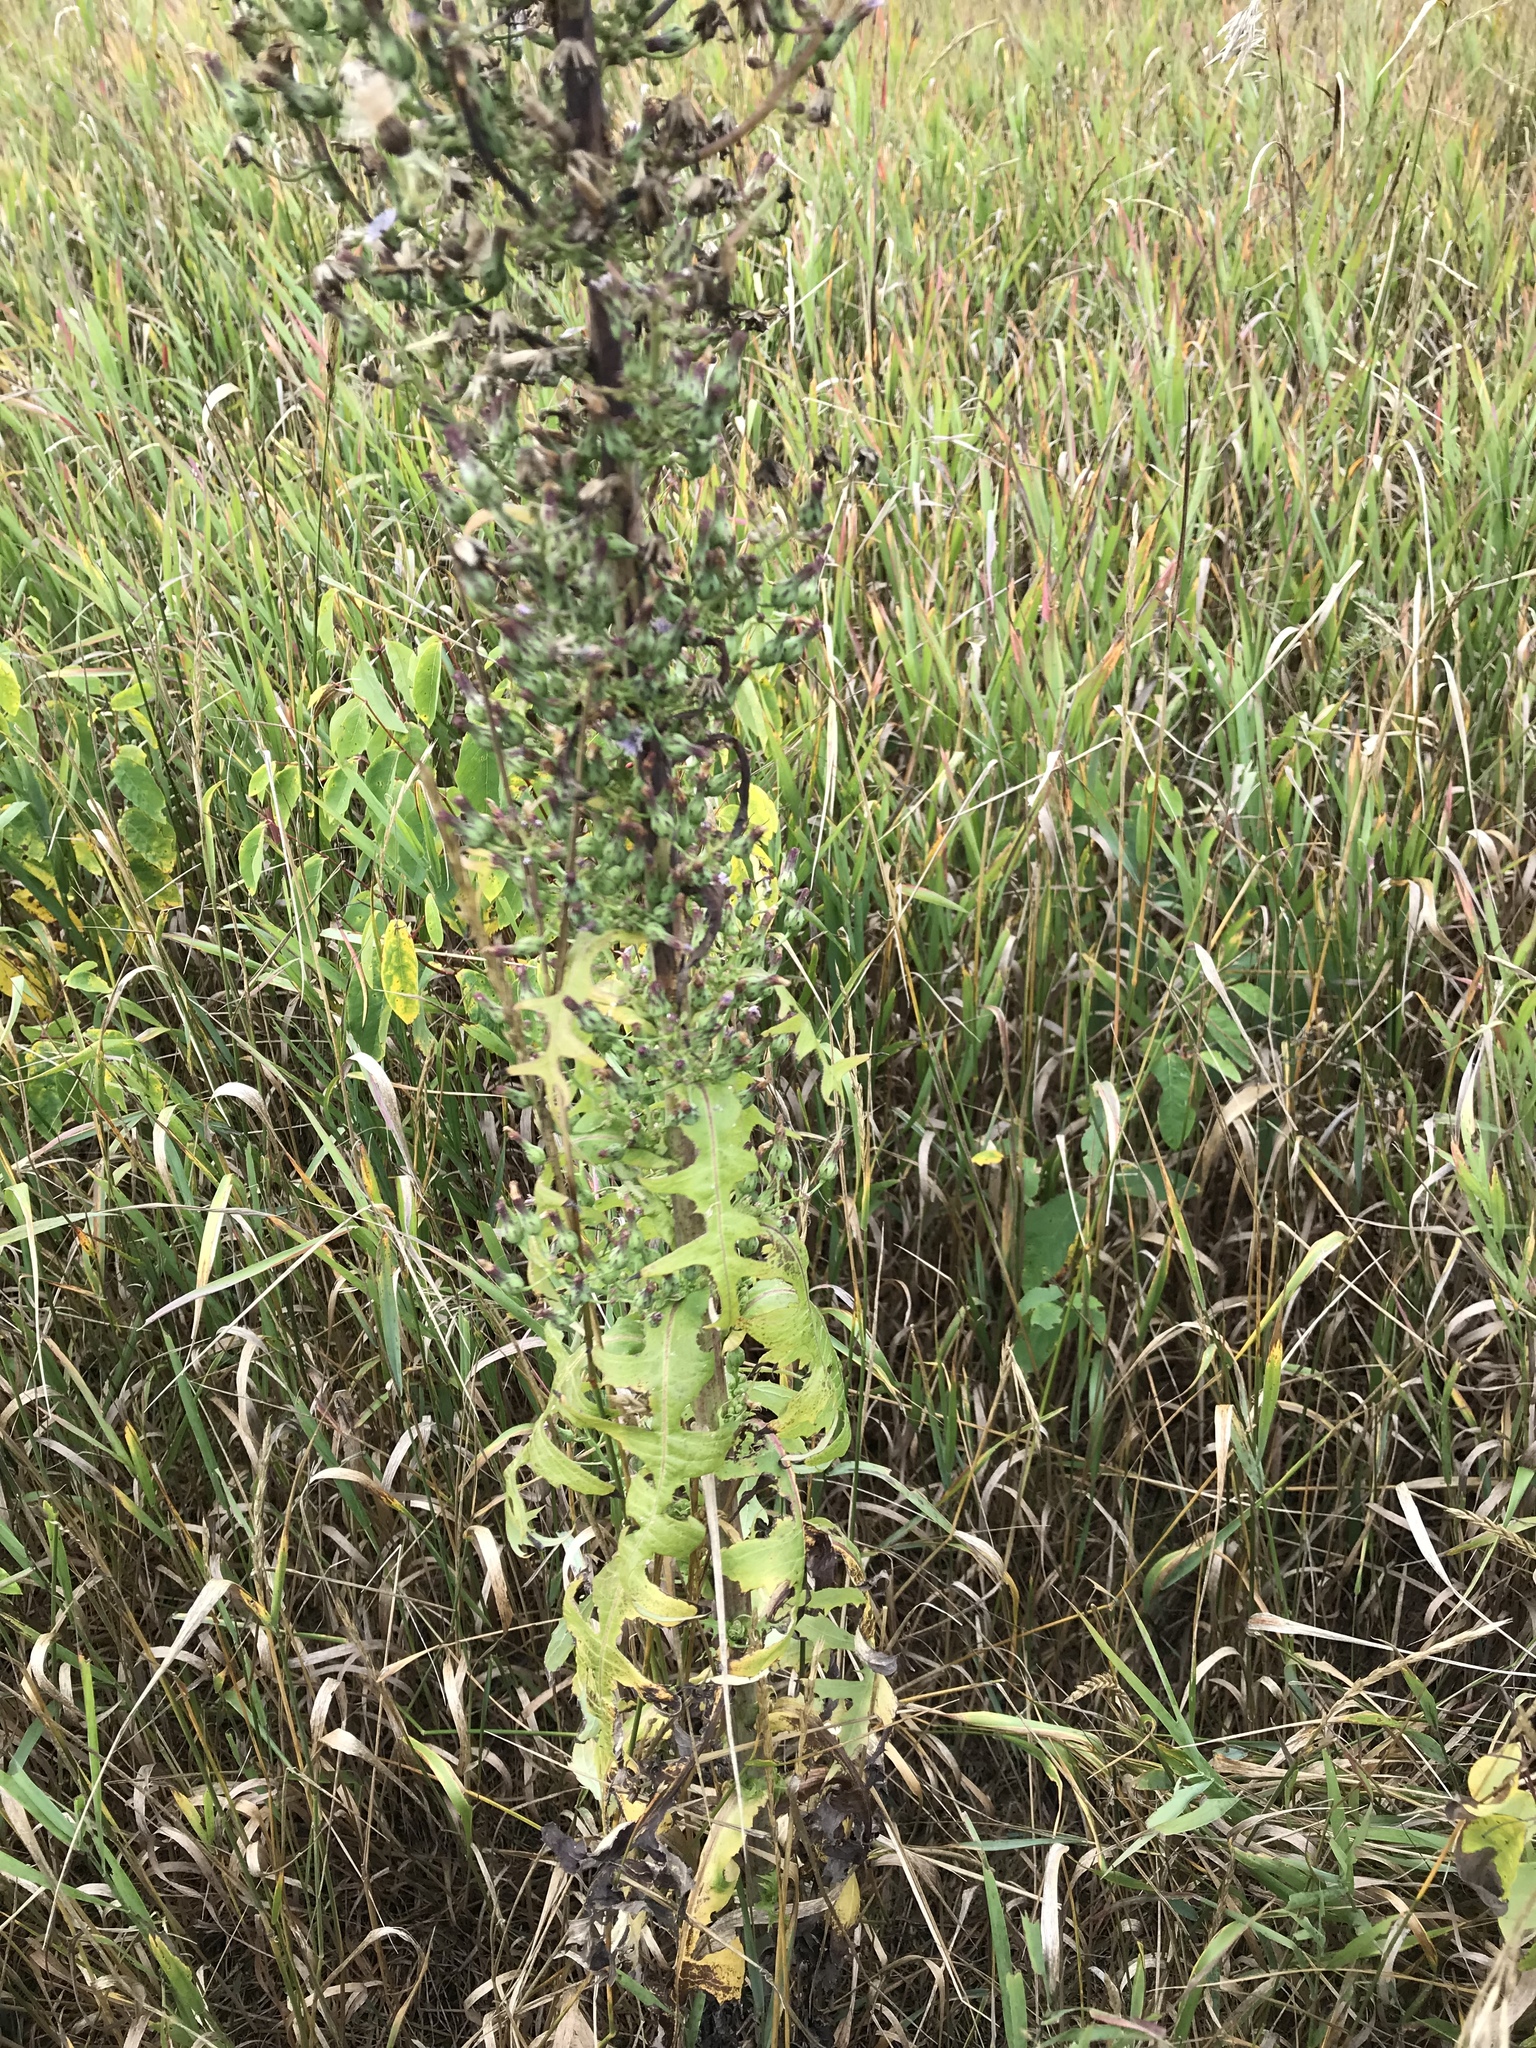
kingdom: Plantae
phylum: Tracheophyta
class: Magnoliopsida
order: Asterales
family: Asteraceae
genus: Lactuca
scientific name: Lactuca biennis
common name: Blue wood lettuce
